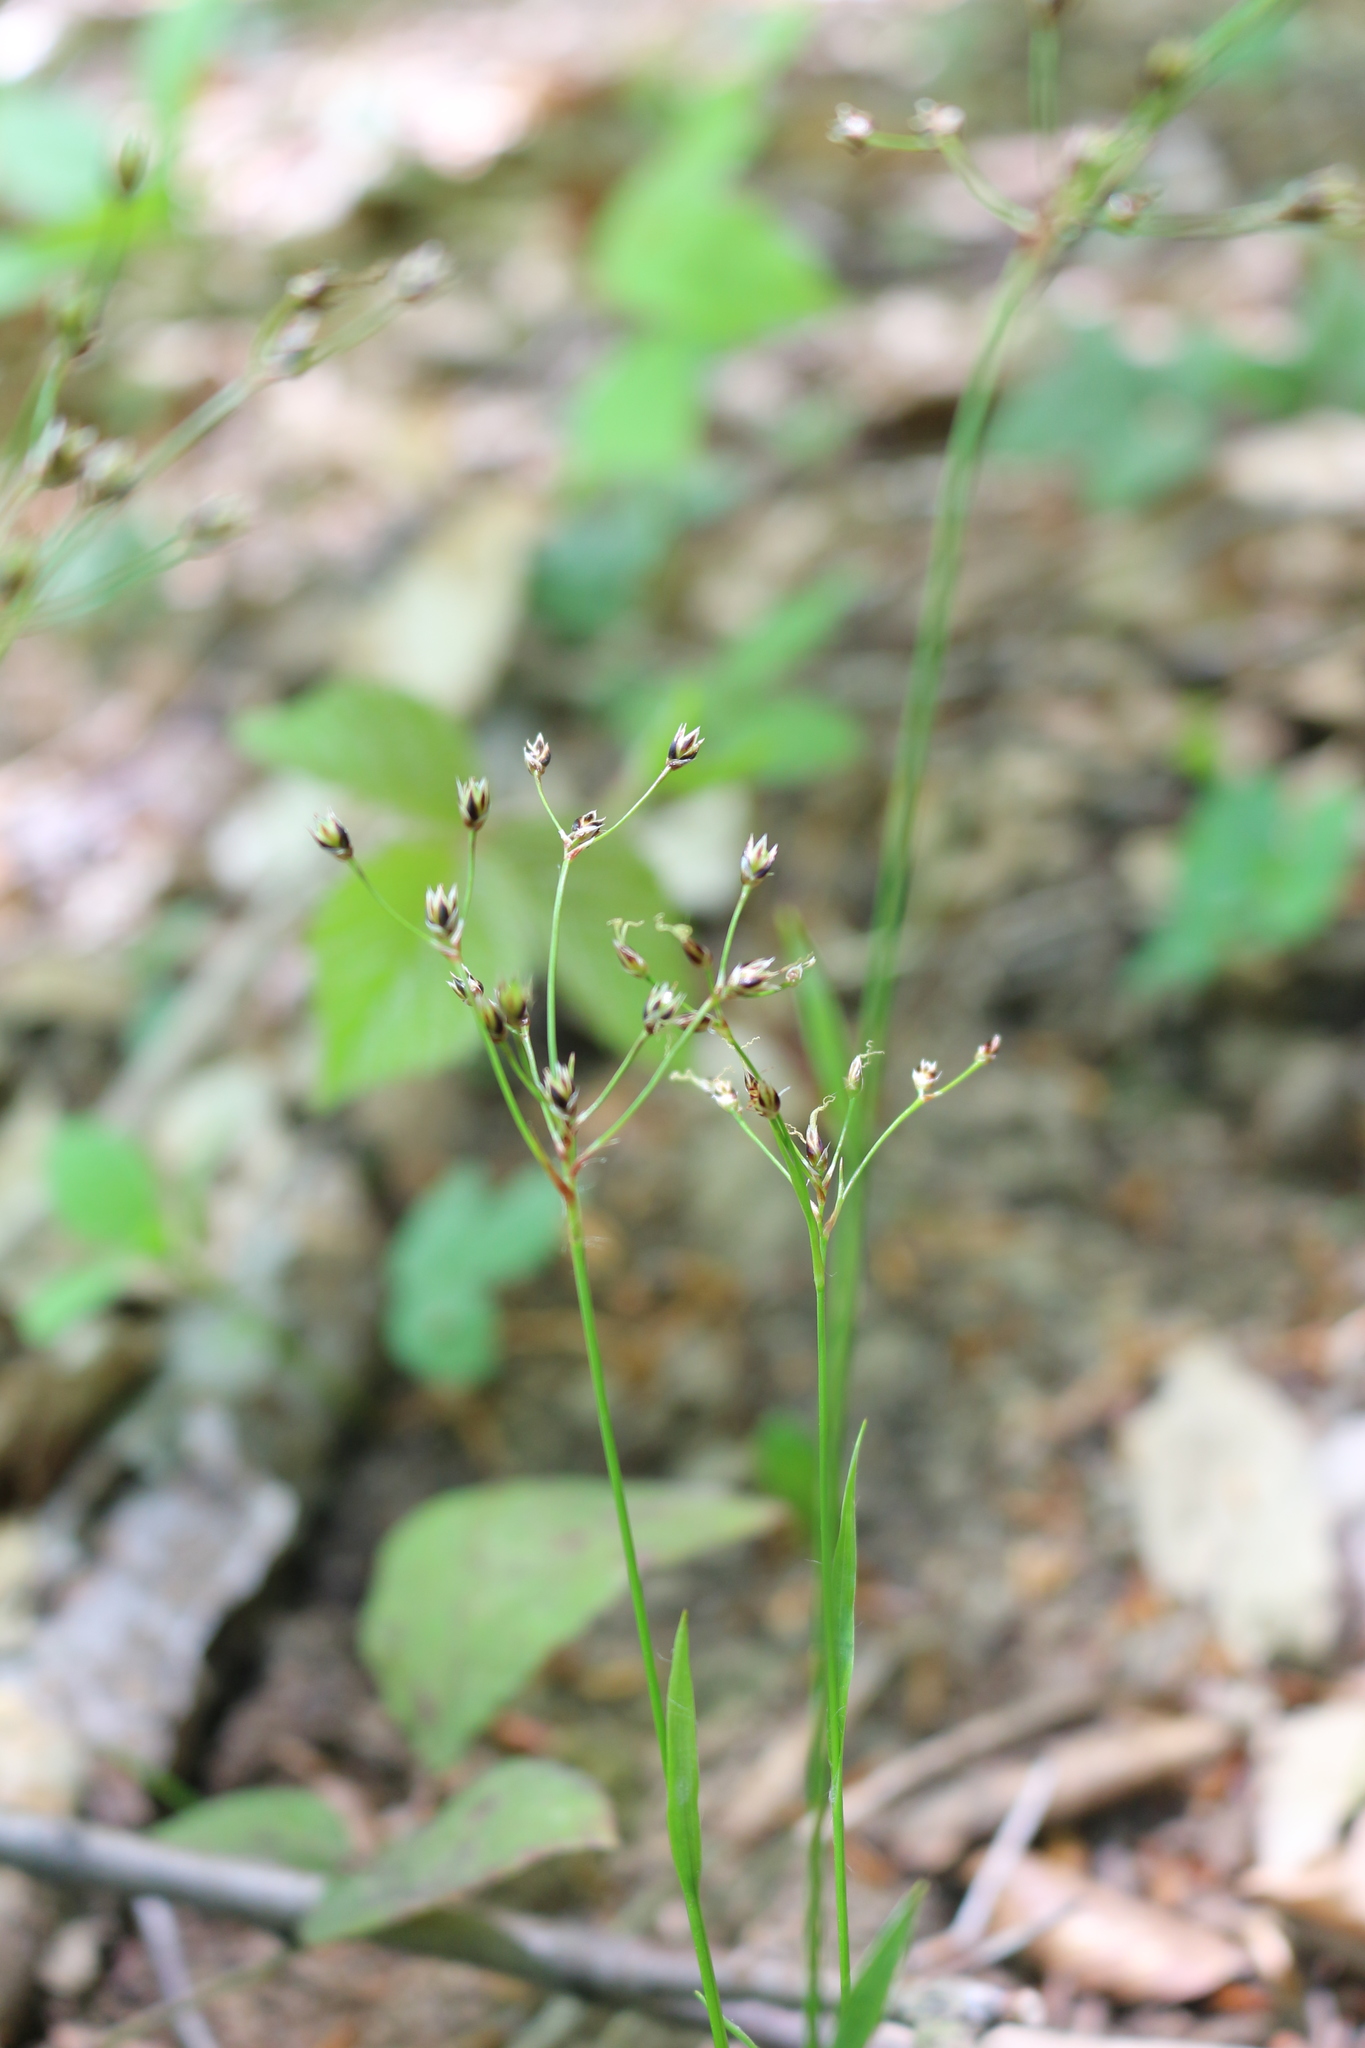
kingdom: Plantae
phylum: Tracheophyta
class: Liliopsida
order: Poales
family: Juncaceae
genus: Luzula
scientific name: Luzula forsteri
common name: Southern wood-rush
